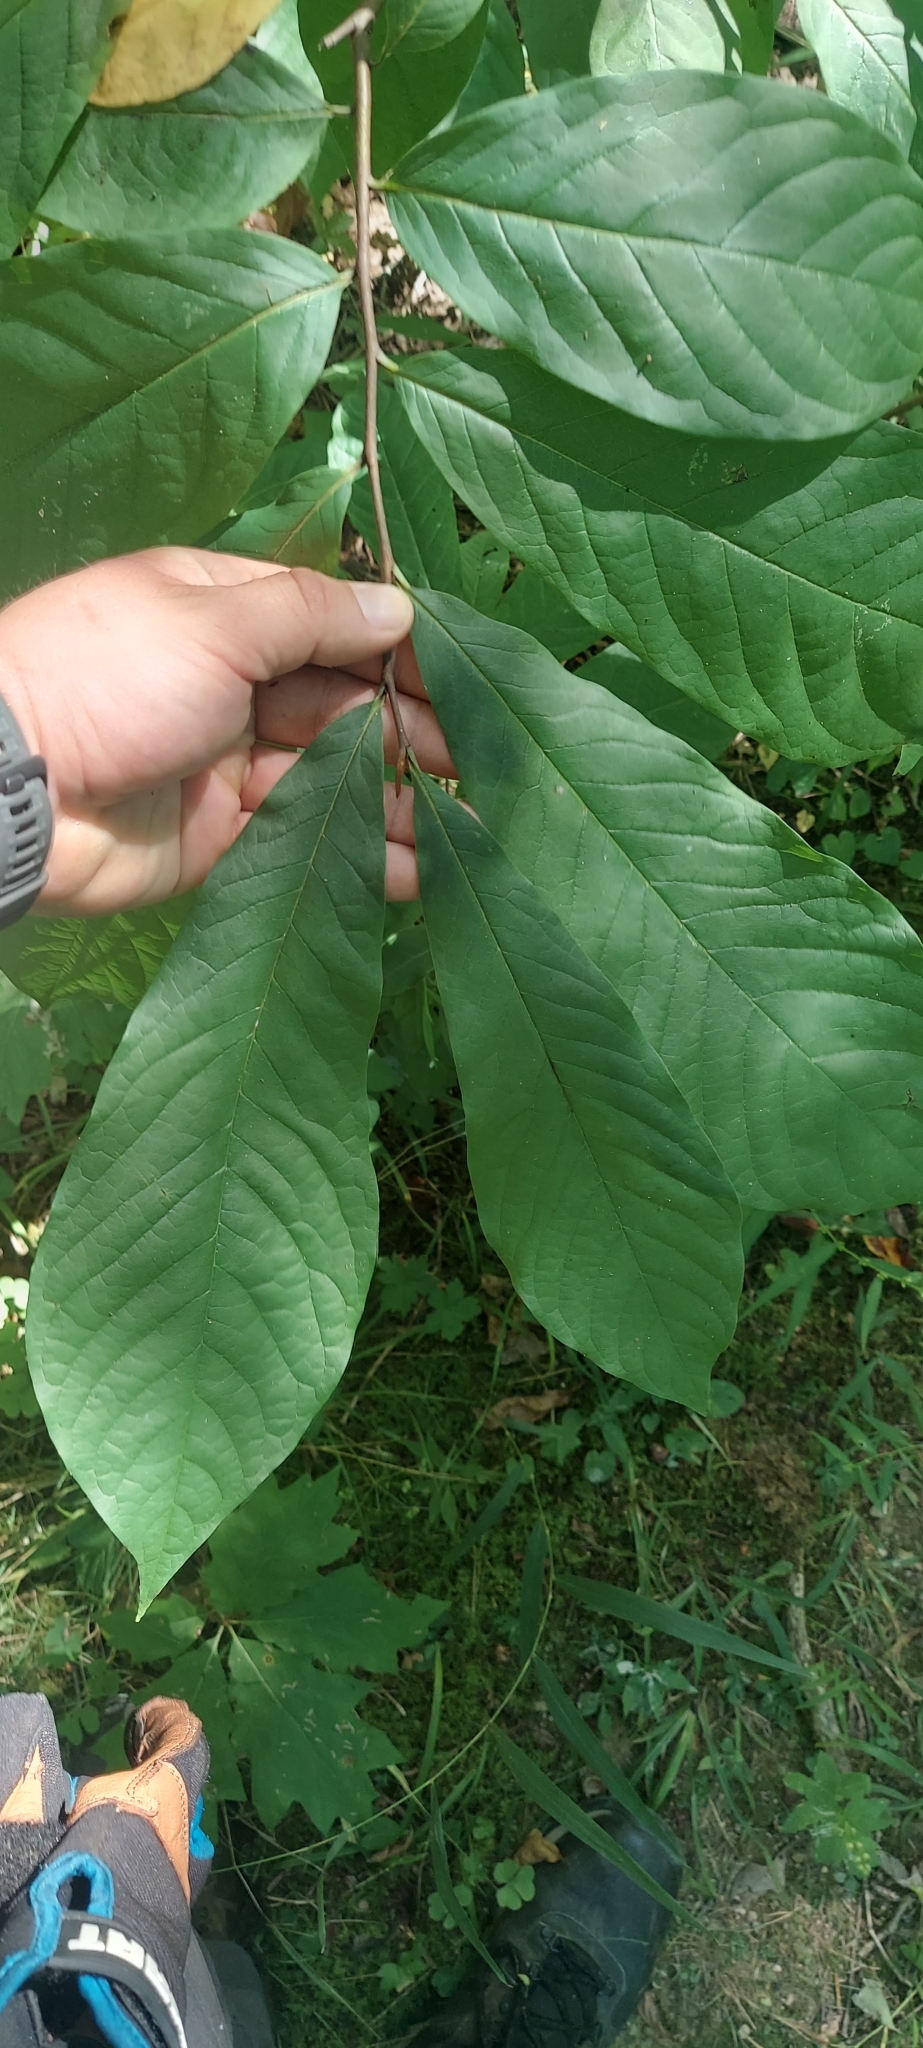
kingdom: Plantae
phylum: Tracheophyta
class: Magnoliopsida
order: Magnoliales
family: Annonaceae
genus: Asimina
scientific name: Asimina triloba
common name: Dog-banana
